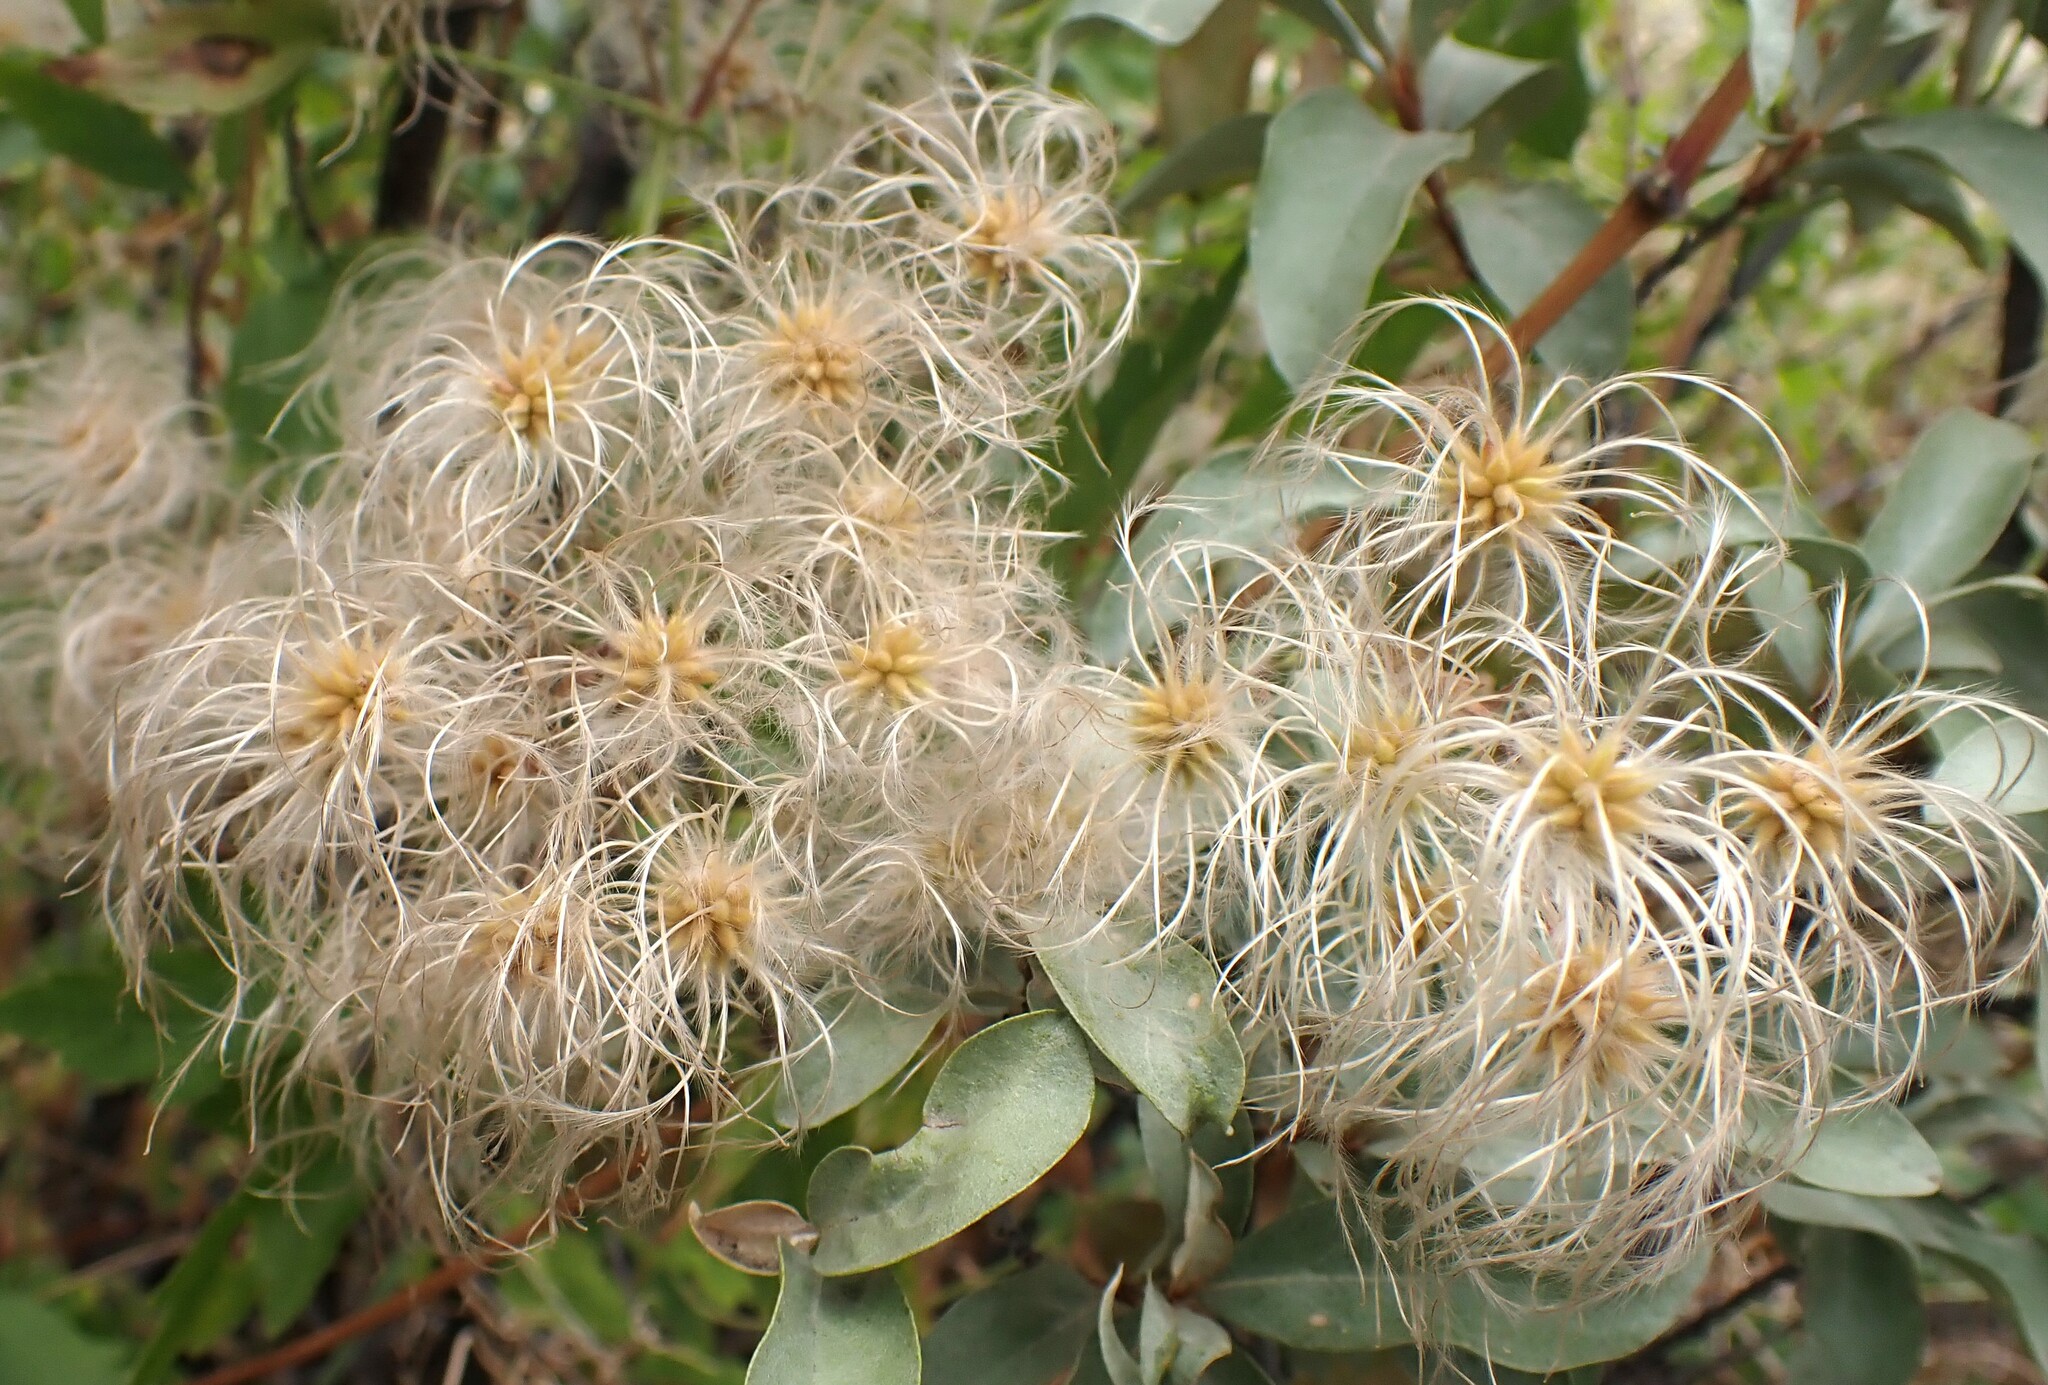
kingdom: Plantae
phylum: Tracheophyta
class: Magnoliopsida
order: Ranunculales
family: Ranunculaceae
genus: Clematis
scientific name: Clematis ligusticifolia
